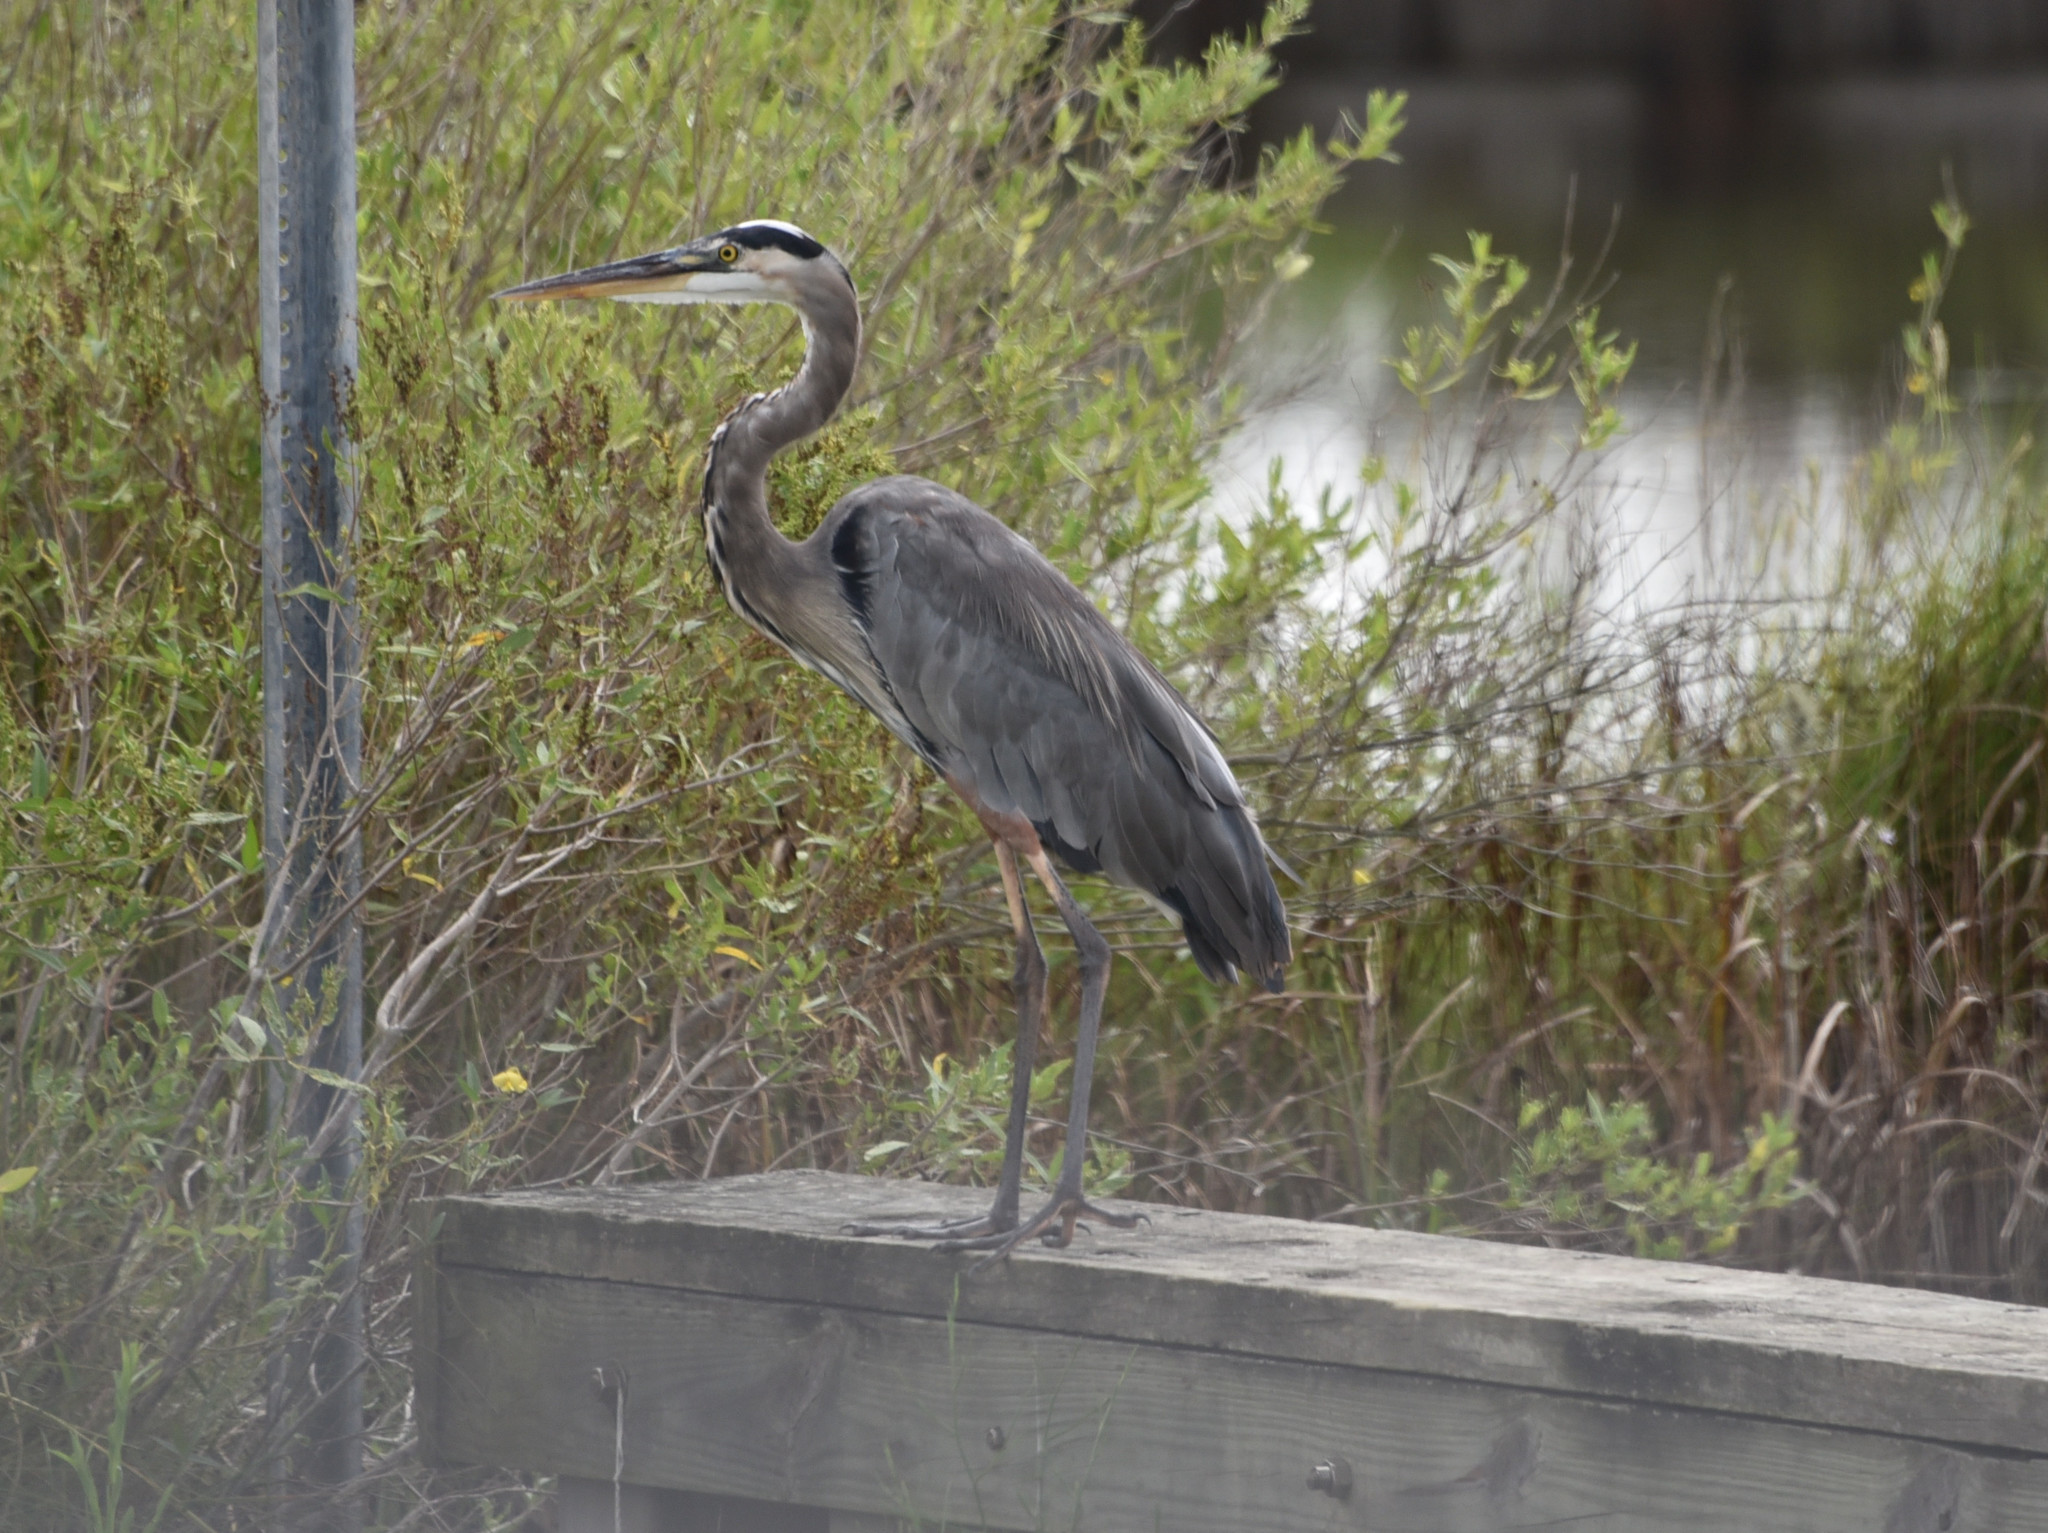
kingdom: Animalia
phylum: Chordata
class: Aves
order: Pelecaniformes
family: Ardeidae
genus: Ardea
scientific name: Ardea herodias
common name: Great blue heron
